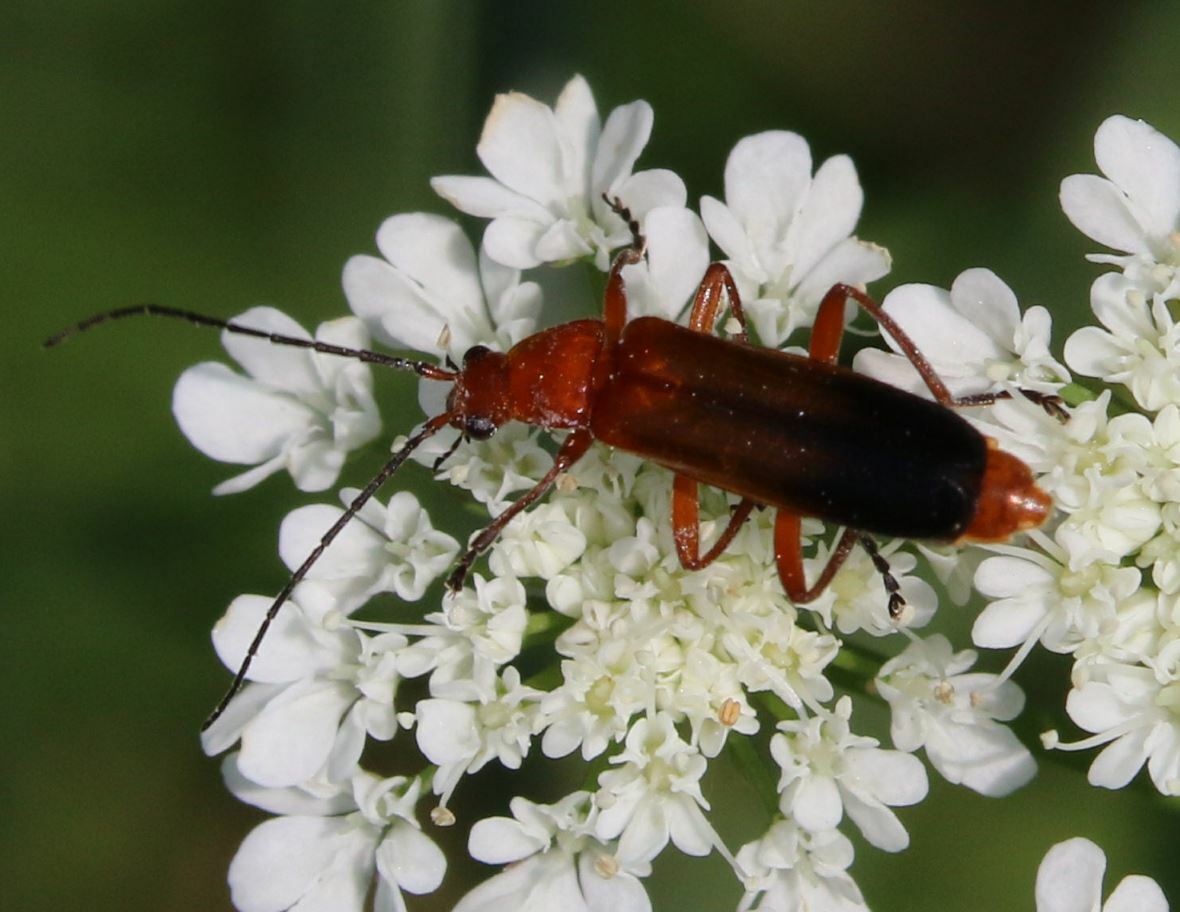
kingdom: Animalia
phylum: Arthropoda
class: Insecta
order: Coleoptera
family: Cantharidae
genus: Rhagonycha
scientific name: Rhagonycha fulva
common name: Common red soldier beetle
